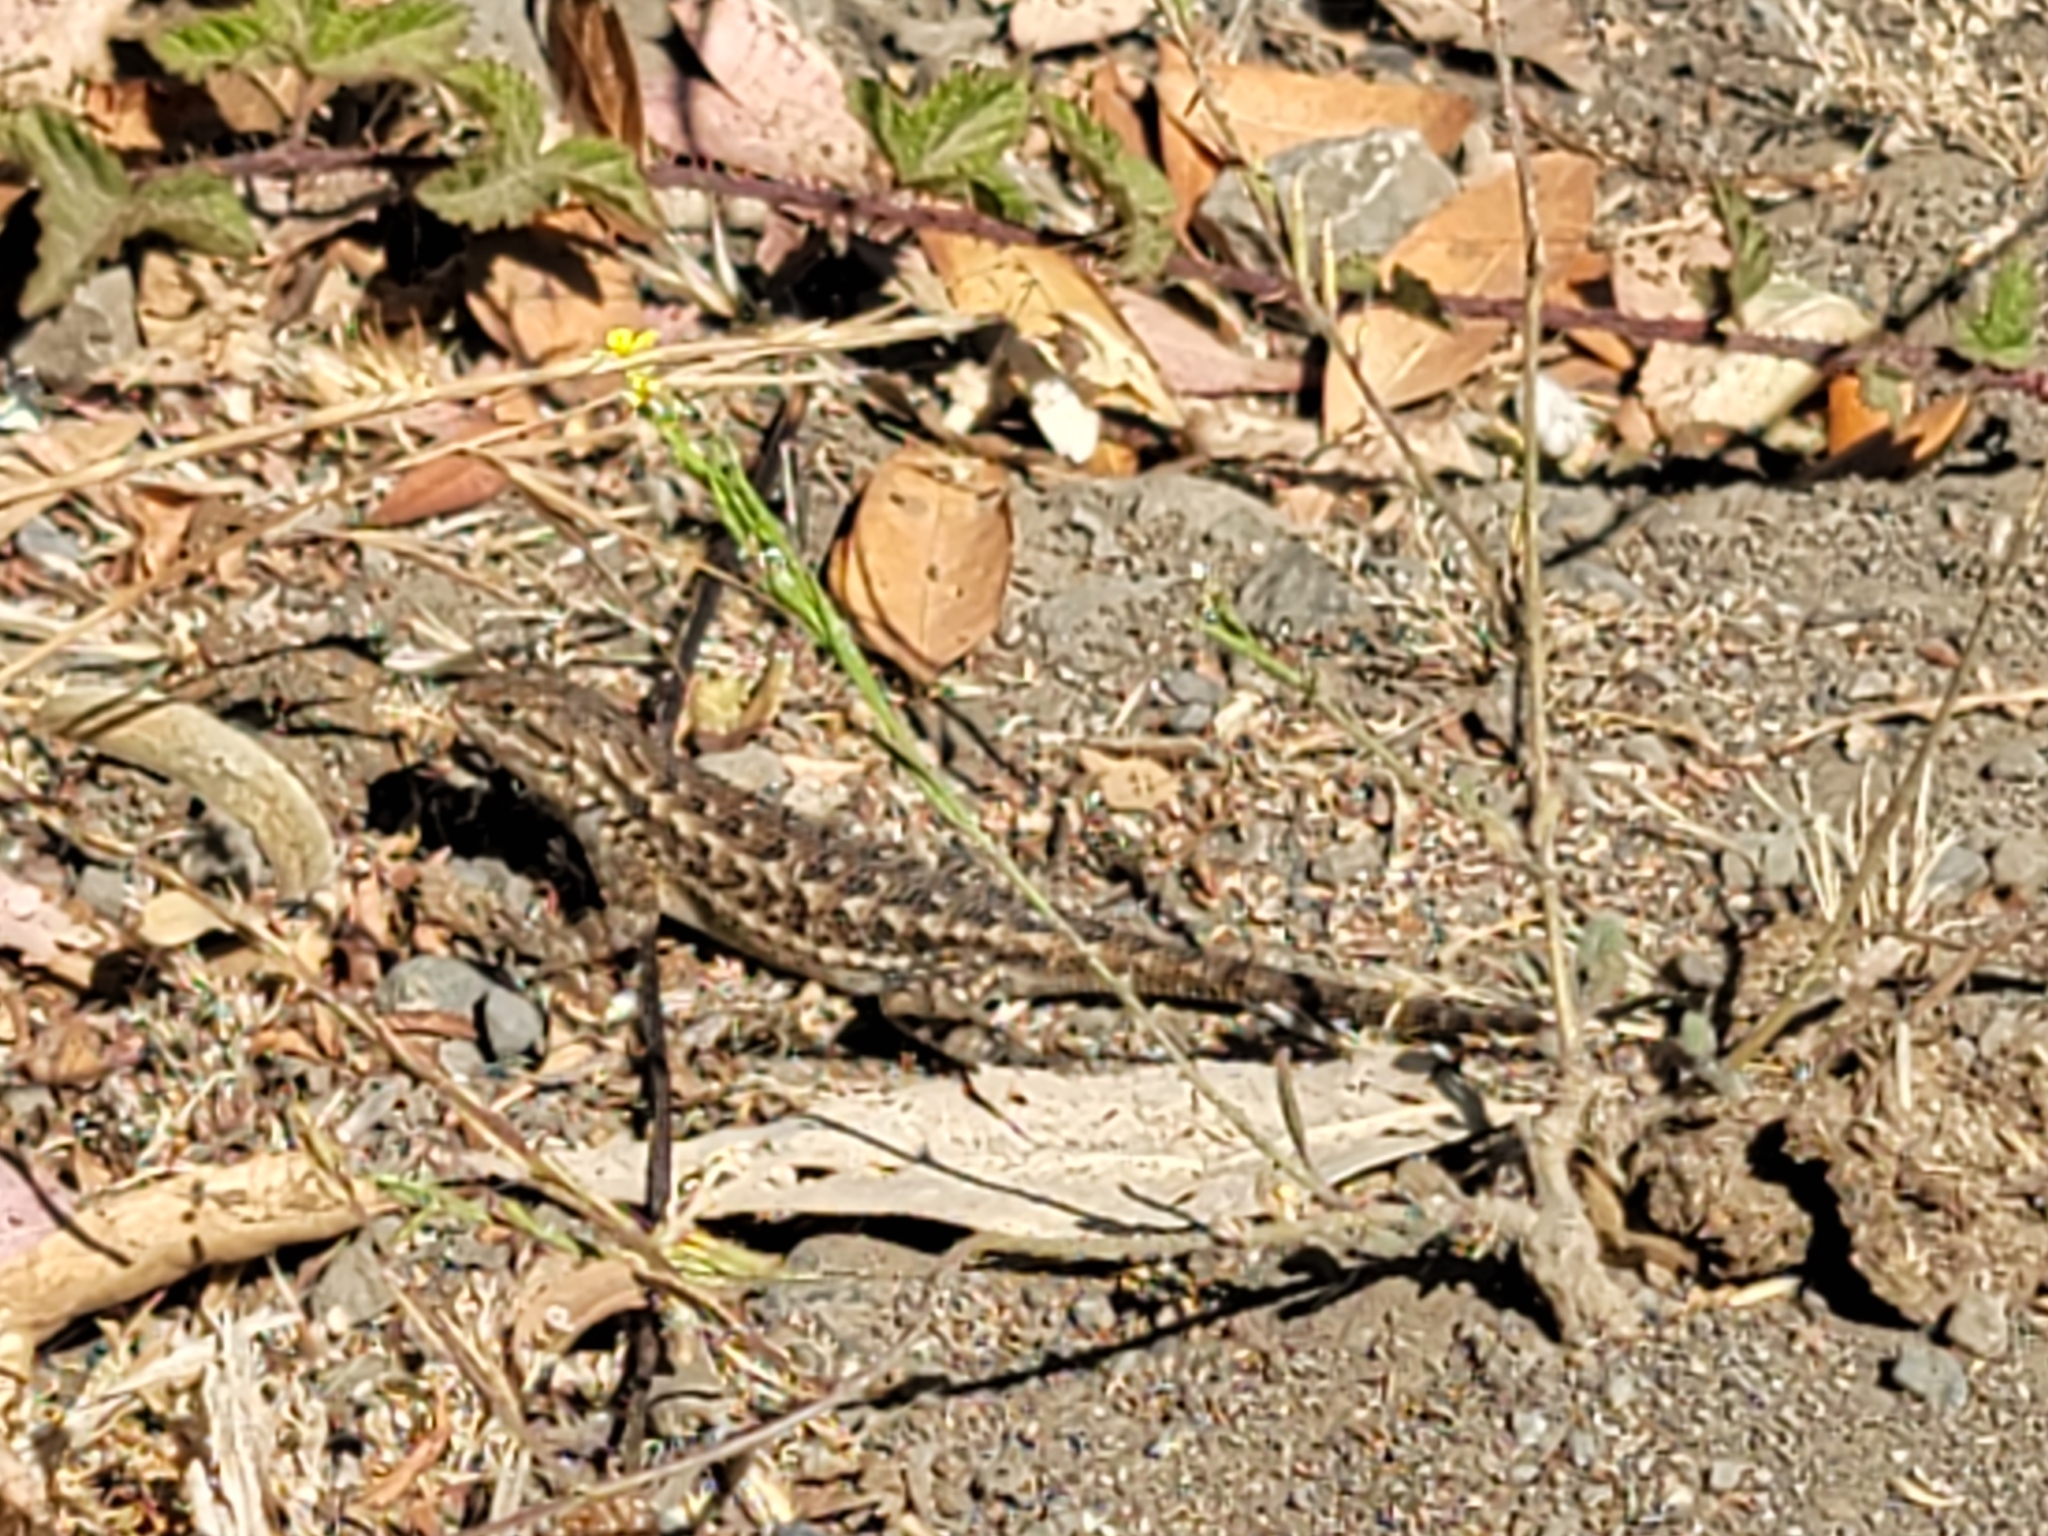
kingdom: Animalia
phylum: Chordata
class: Squamata
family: Phrynosomatidae
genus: Sceloporus
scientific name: Sceloporus occidentalis
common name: Western fence lizard
